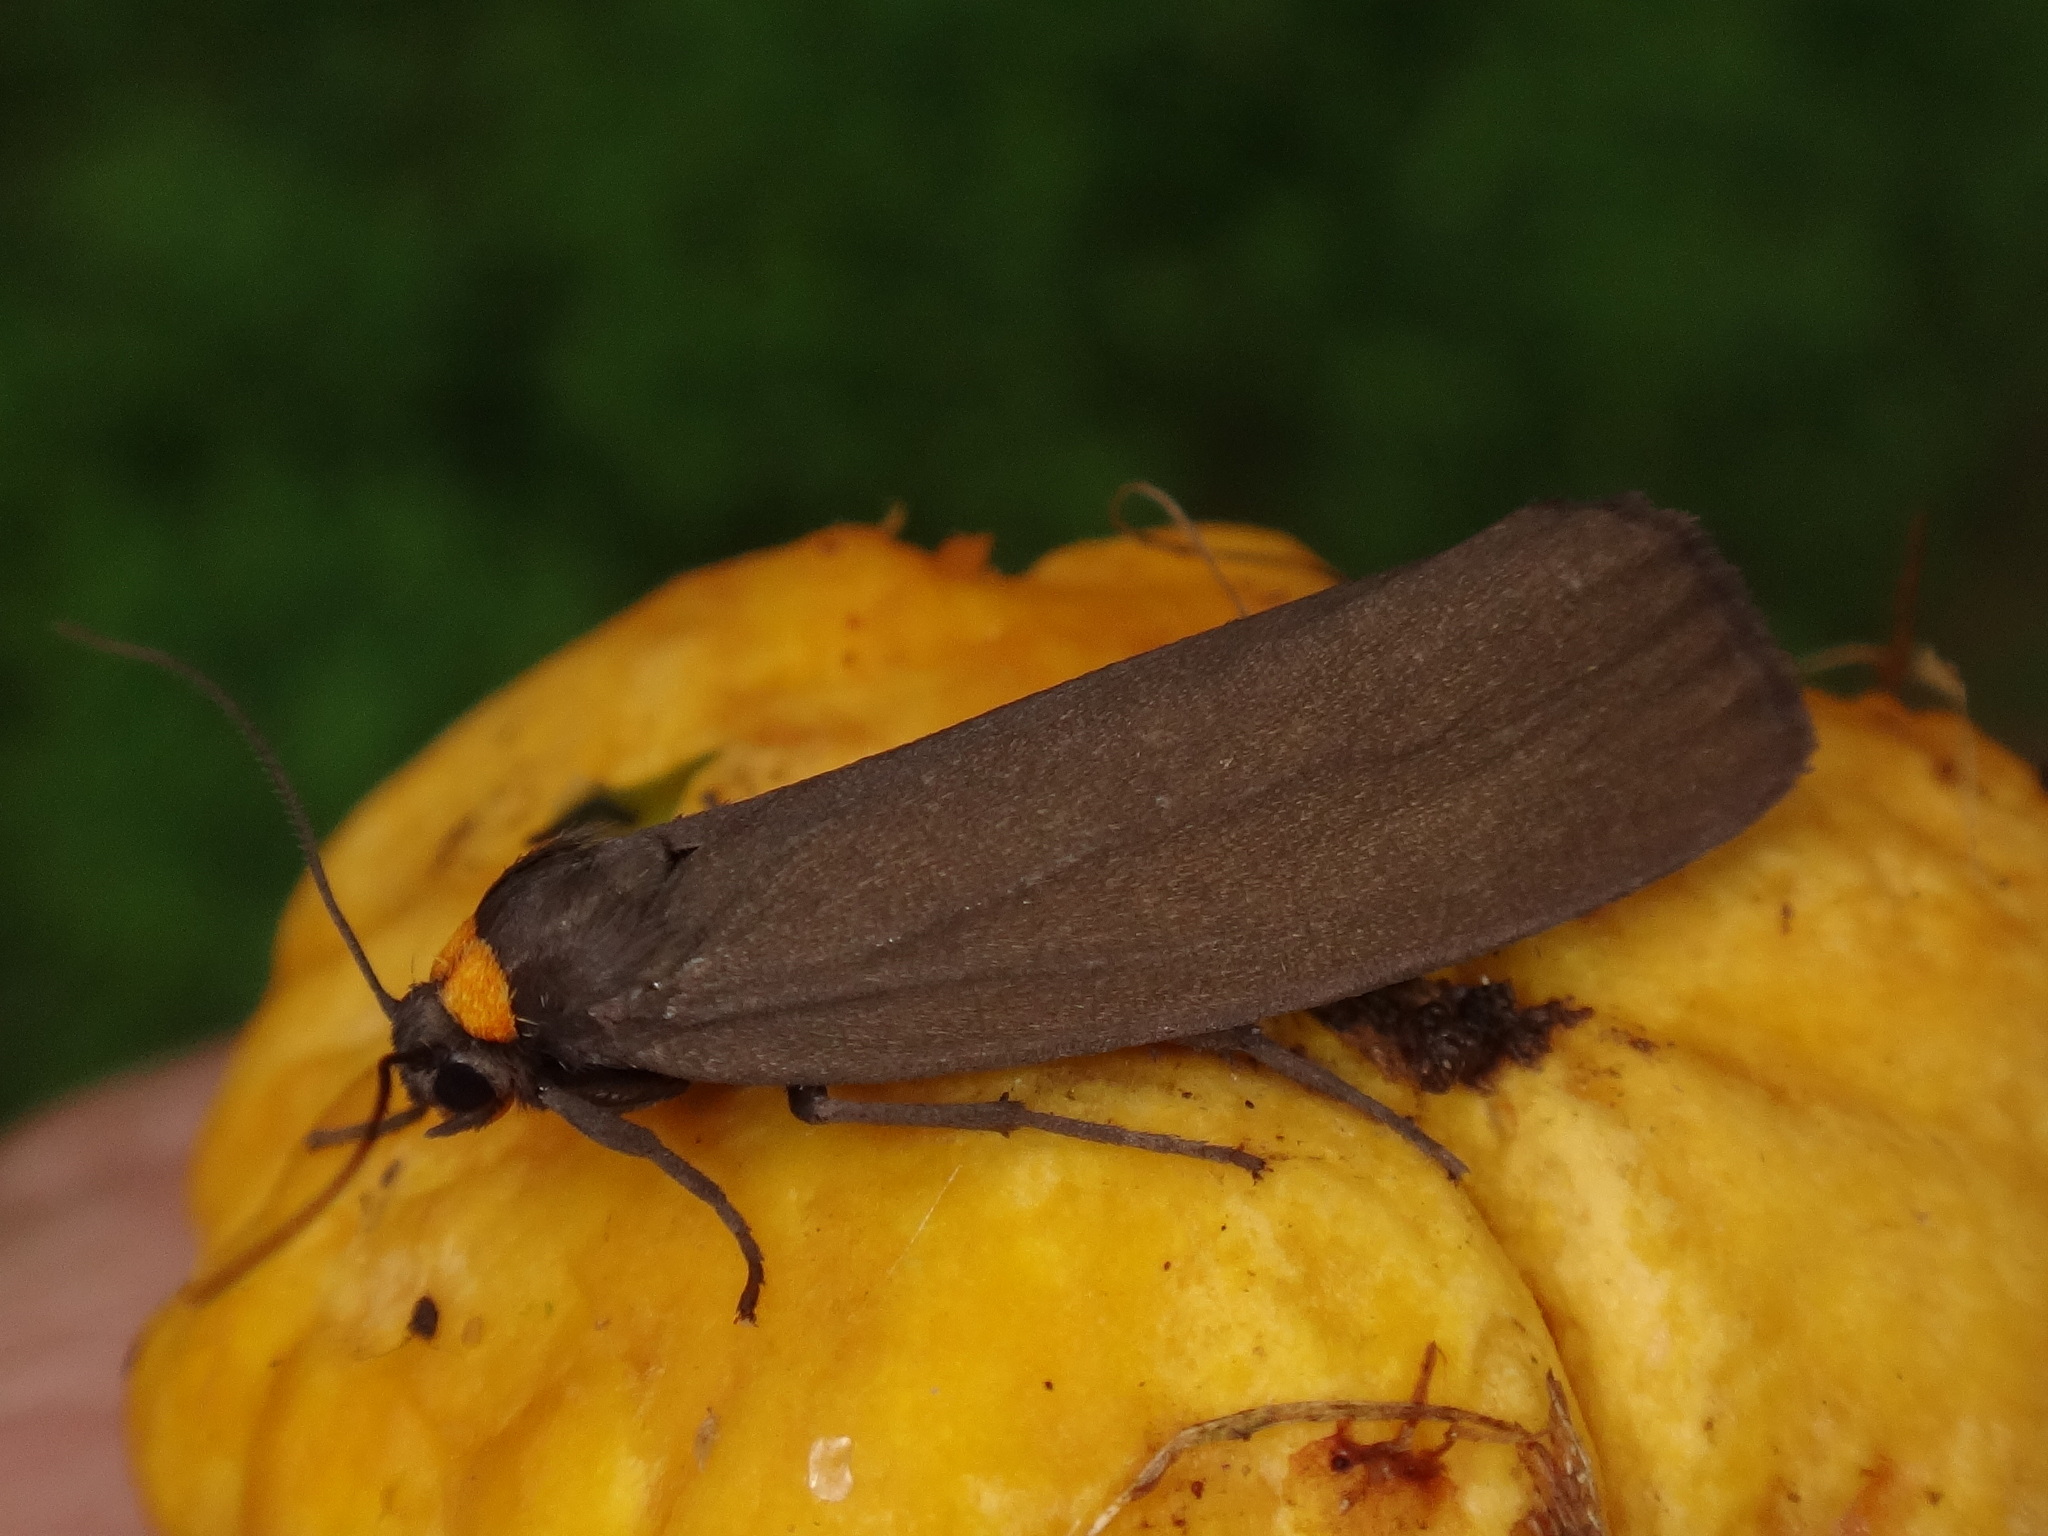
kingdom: Animalia
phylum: Arthropoda
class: Insecta
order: Lepidoptera
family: Erebidae
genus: Atolmis
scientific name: Atolmis rubricollis
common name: Red-necked footman
